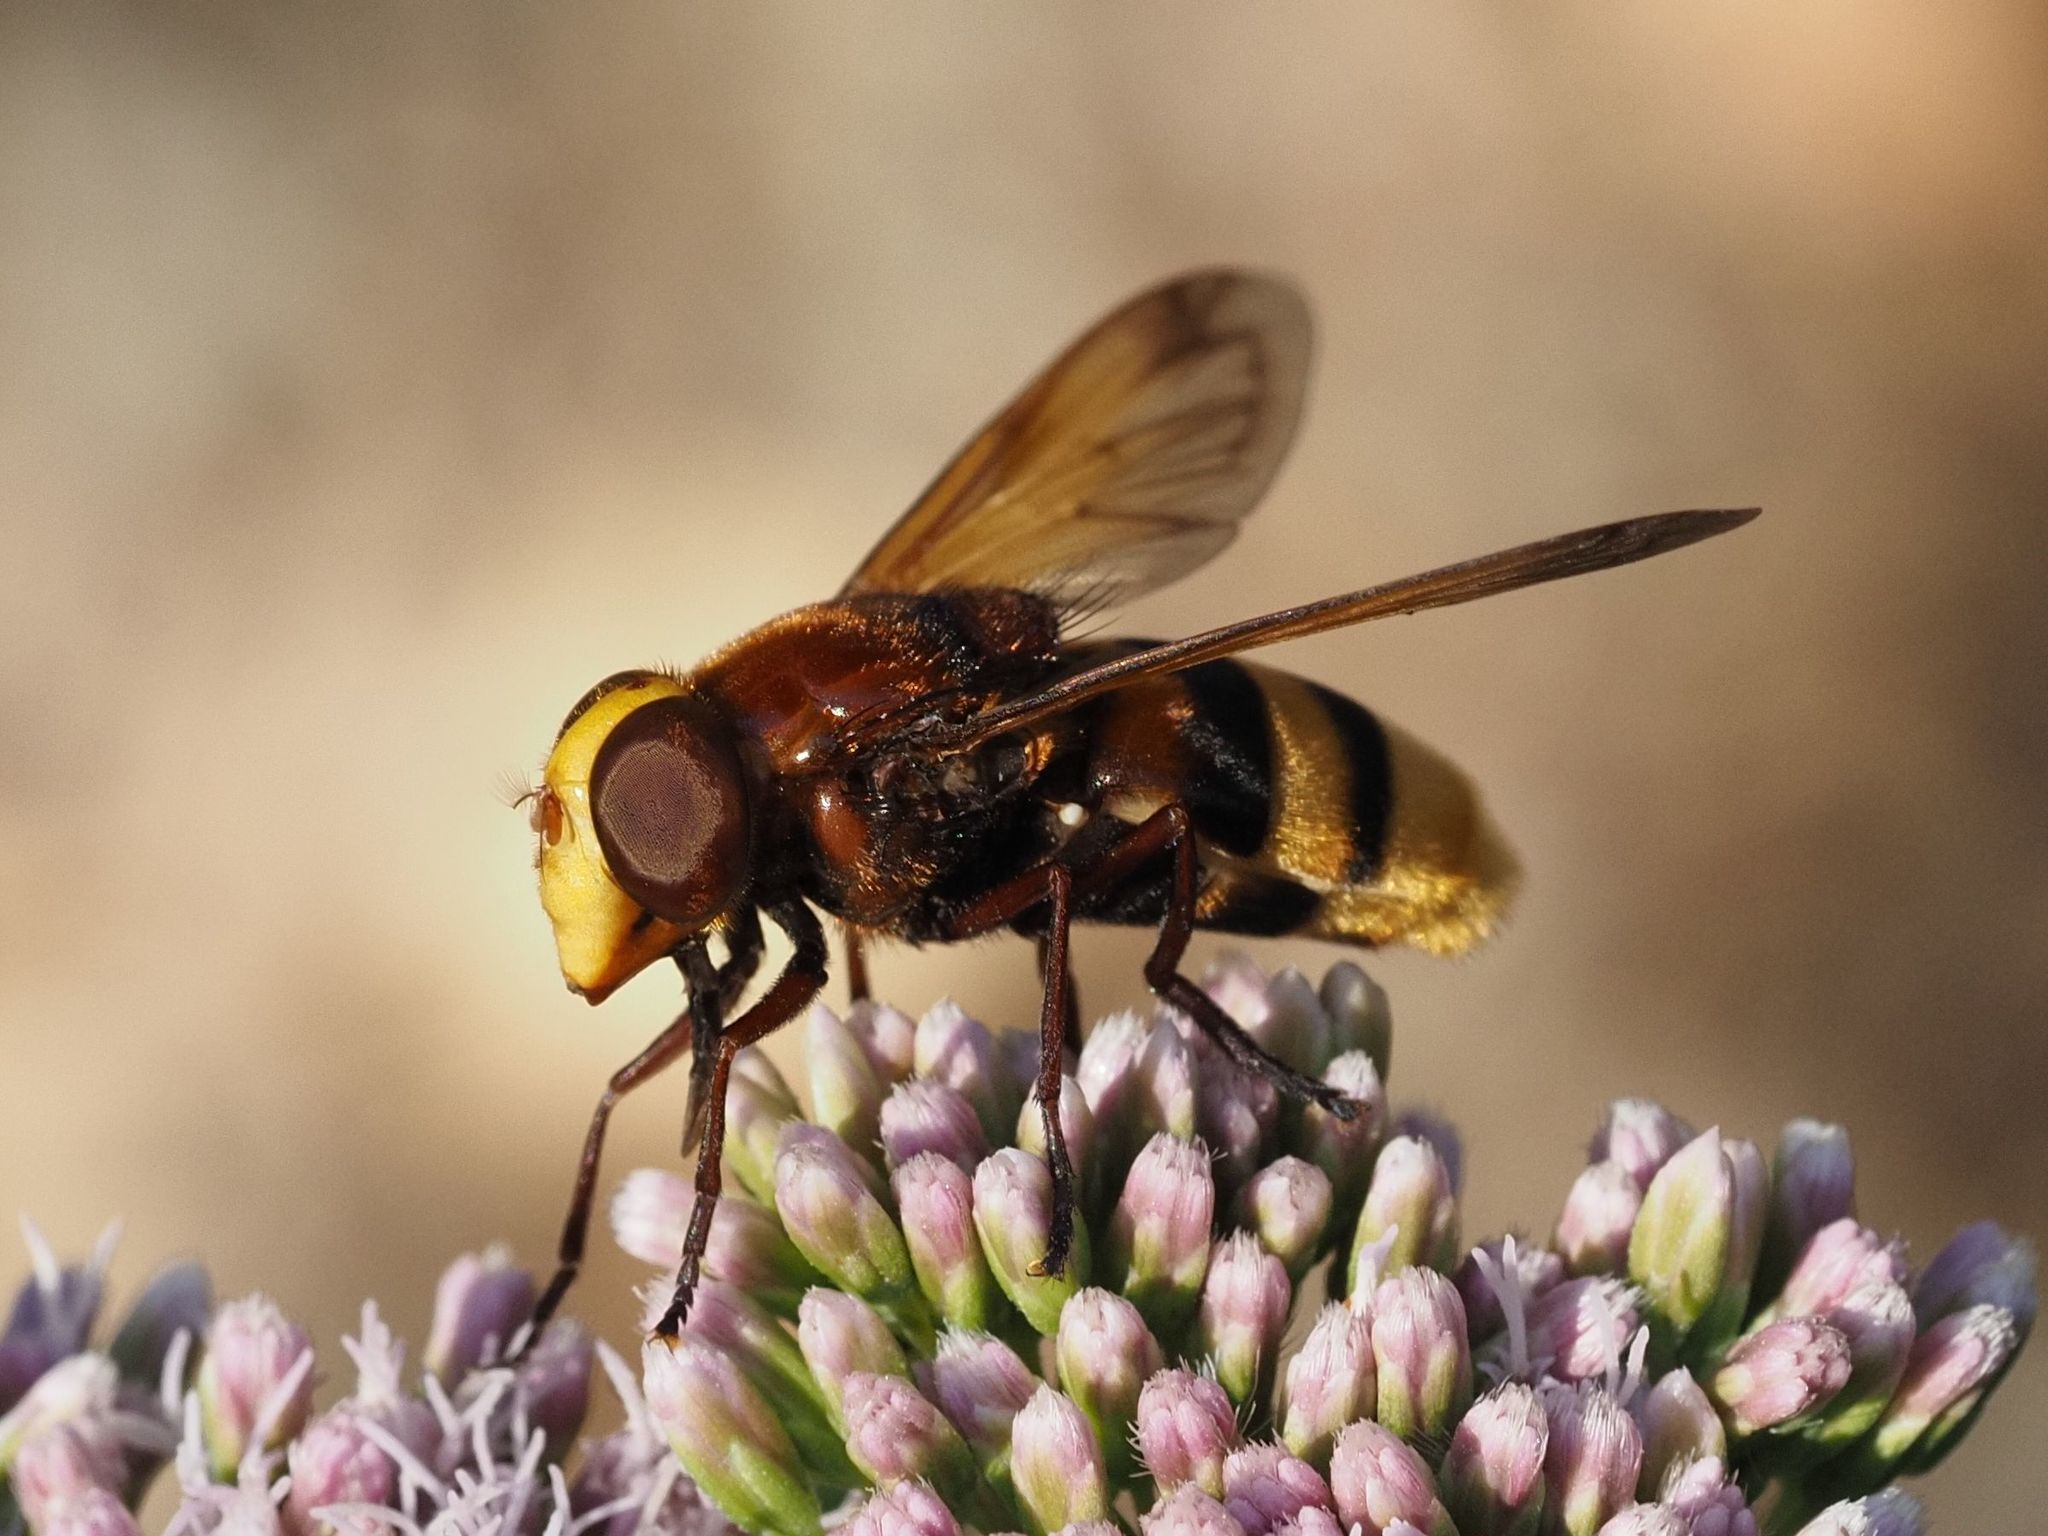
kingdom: Animalia
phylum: Arthropoda
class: Insecta
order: Diptera
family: Syrphidae
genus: Volucella
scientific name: Volucella zonaria
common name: Hornet hoverfly
